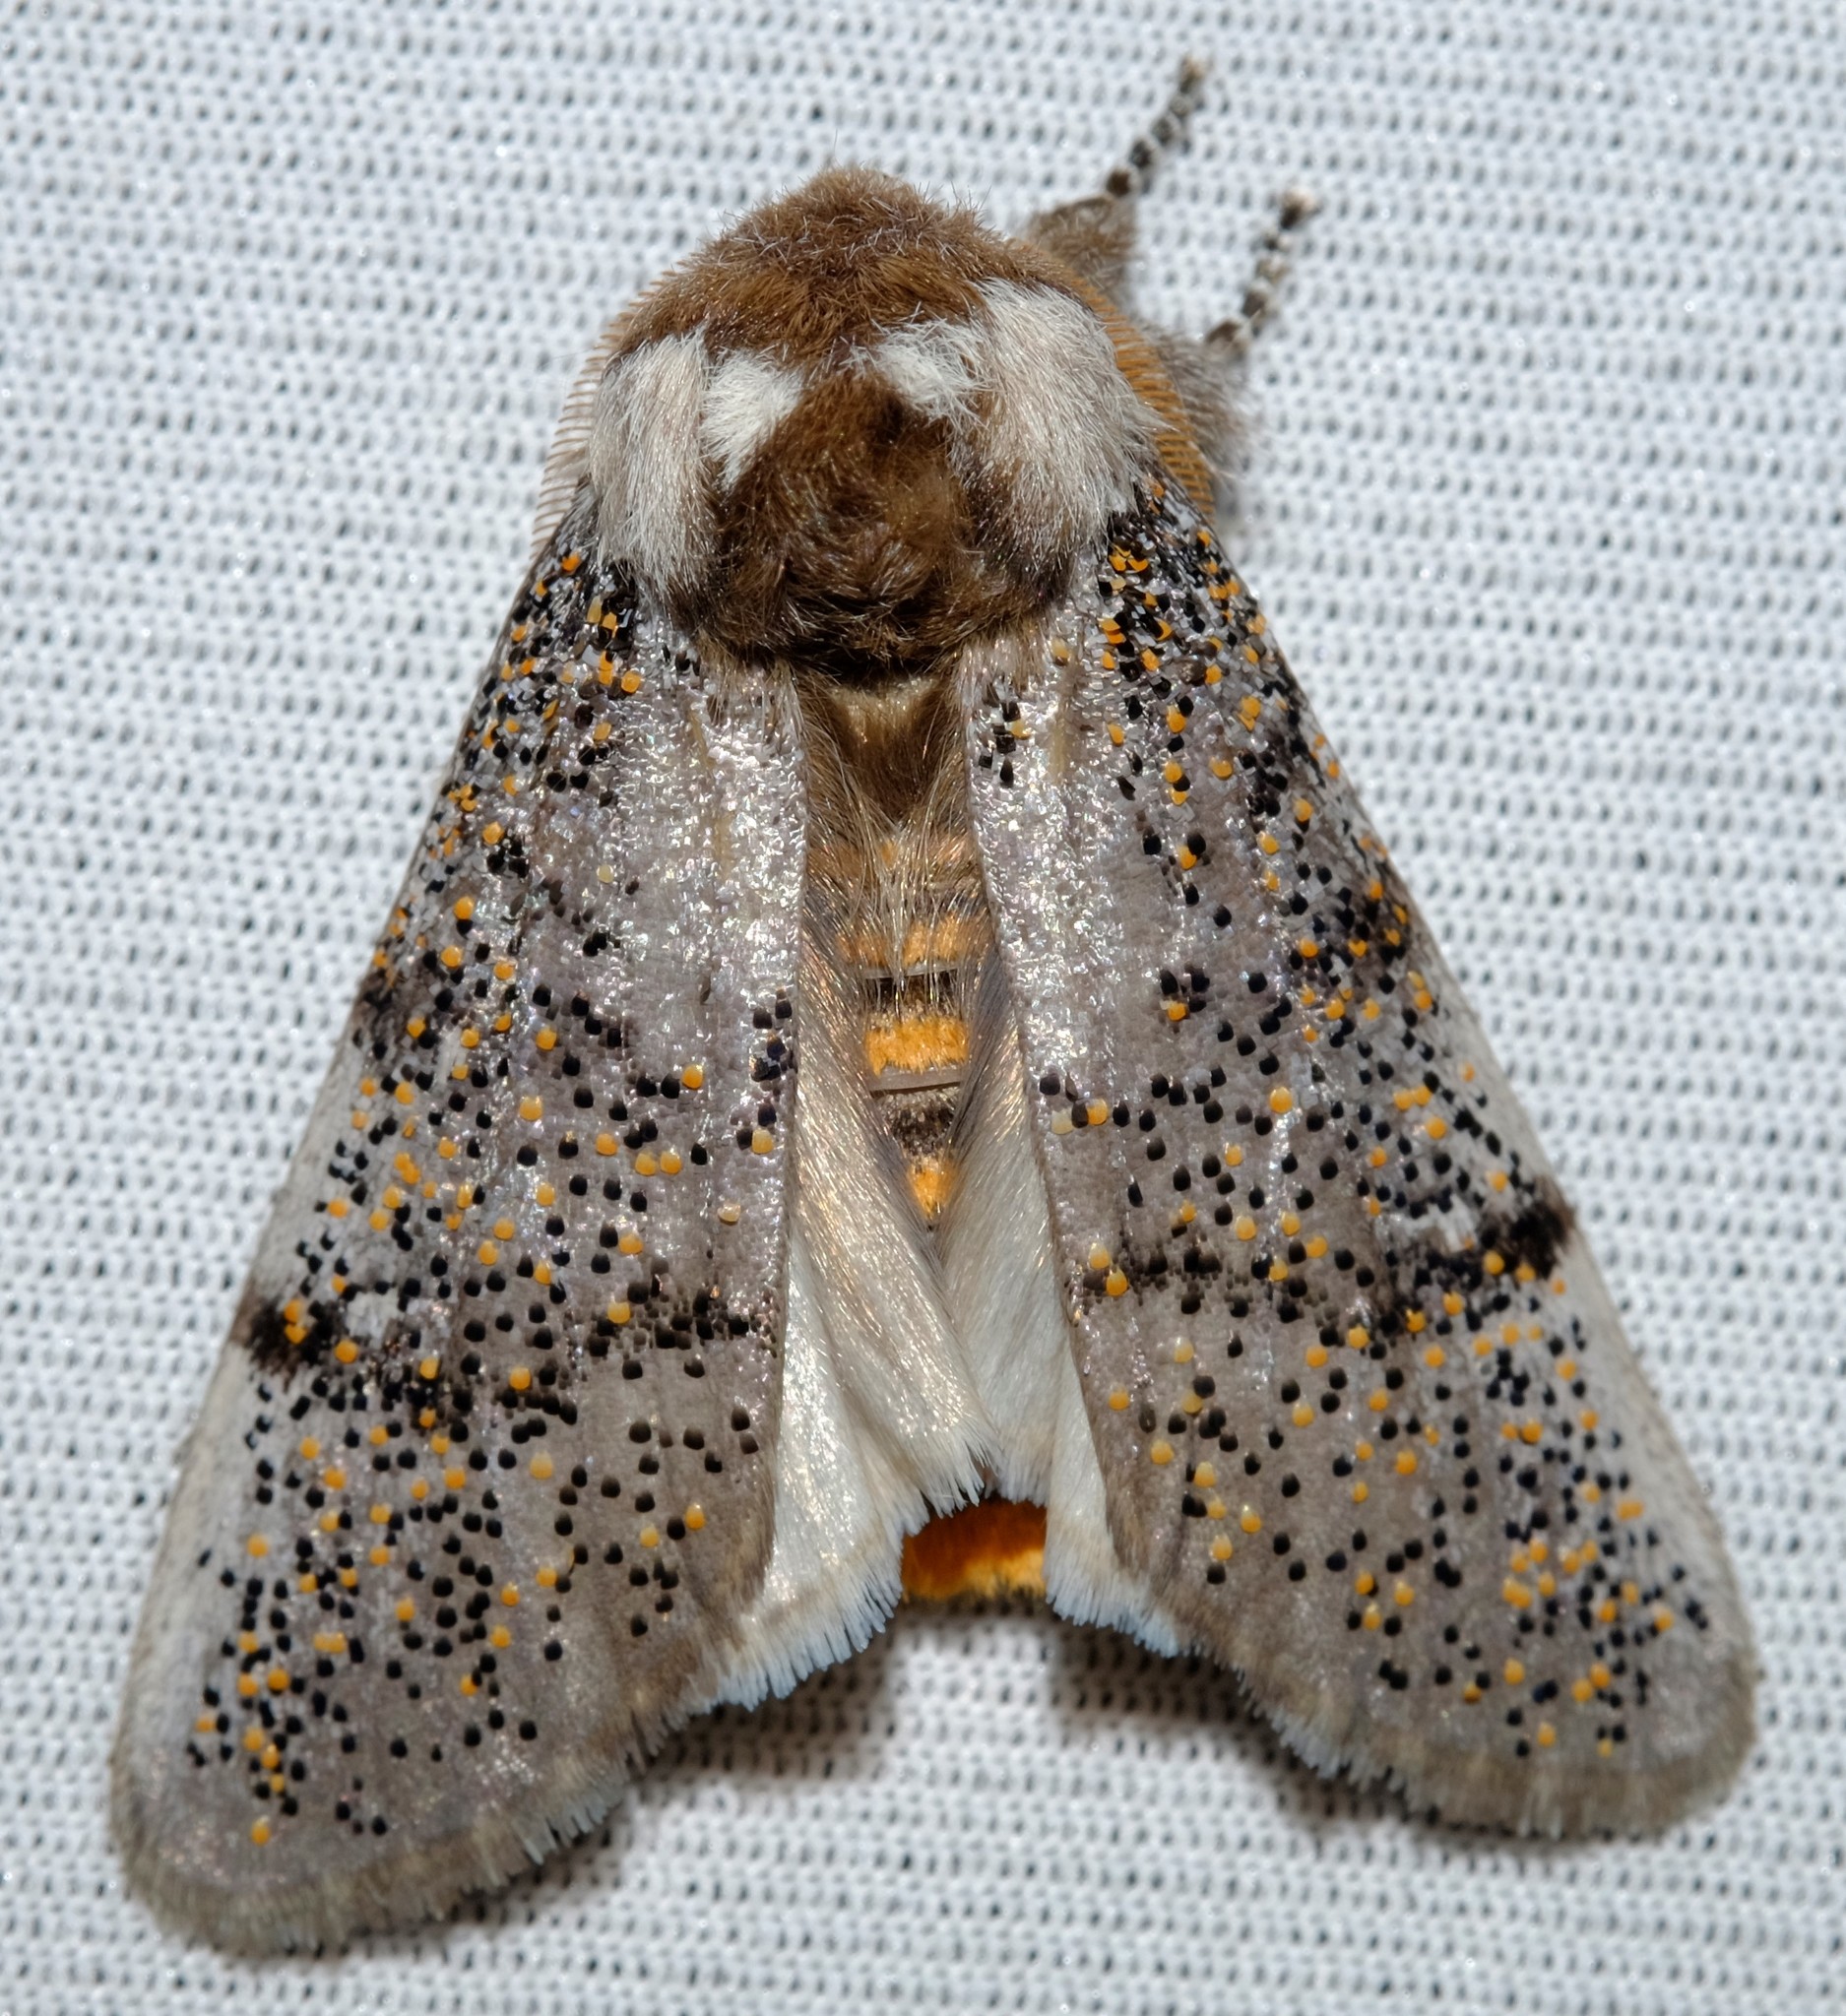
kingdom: Animalia
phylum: Arthropoda
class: Insecta
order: Lepidoptera
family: Oenosandridae
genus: Oenosandra
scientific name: Oenosandra boisduvalii
